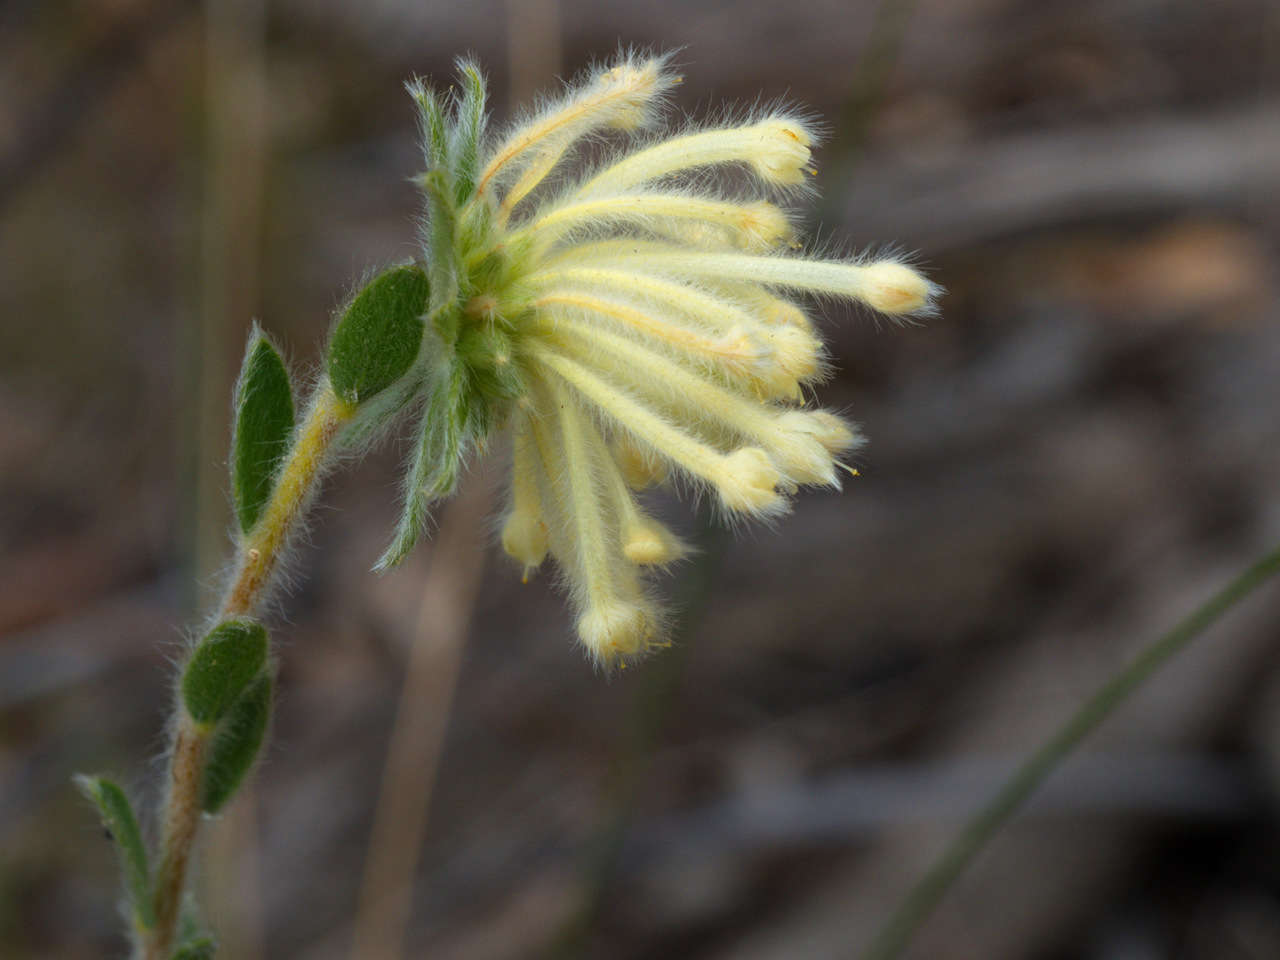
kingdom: Plantae
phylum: Tracheophyta
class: Magnoliopsida
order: Malvales
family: Thymelaeaceae
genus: Pimelea
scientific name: Pimelea octophylla
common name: Woolly riceflower
